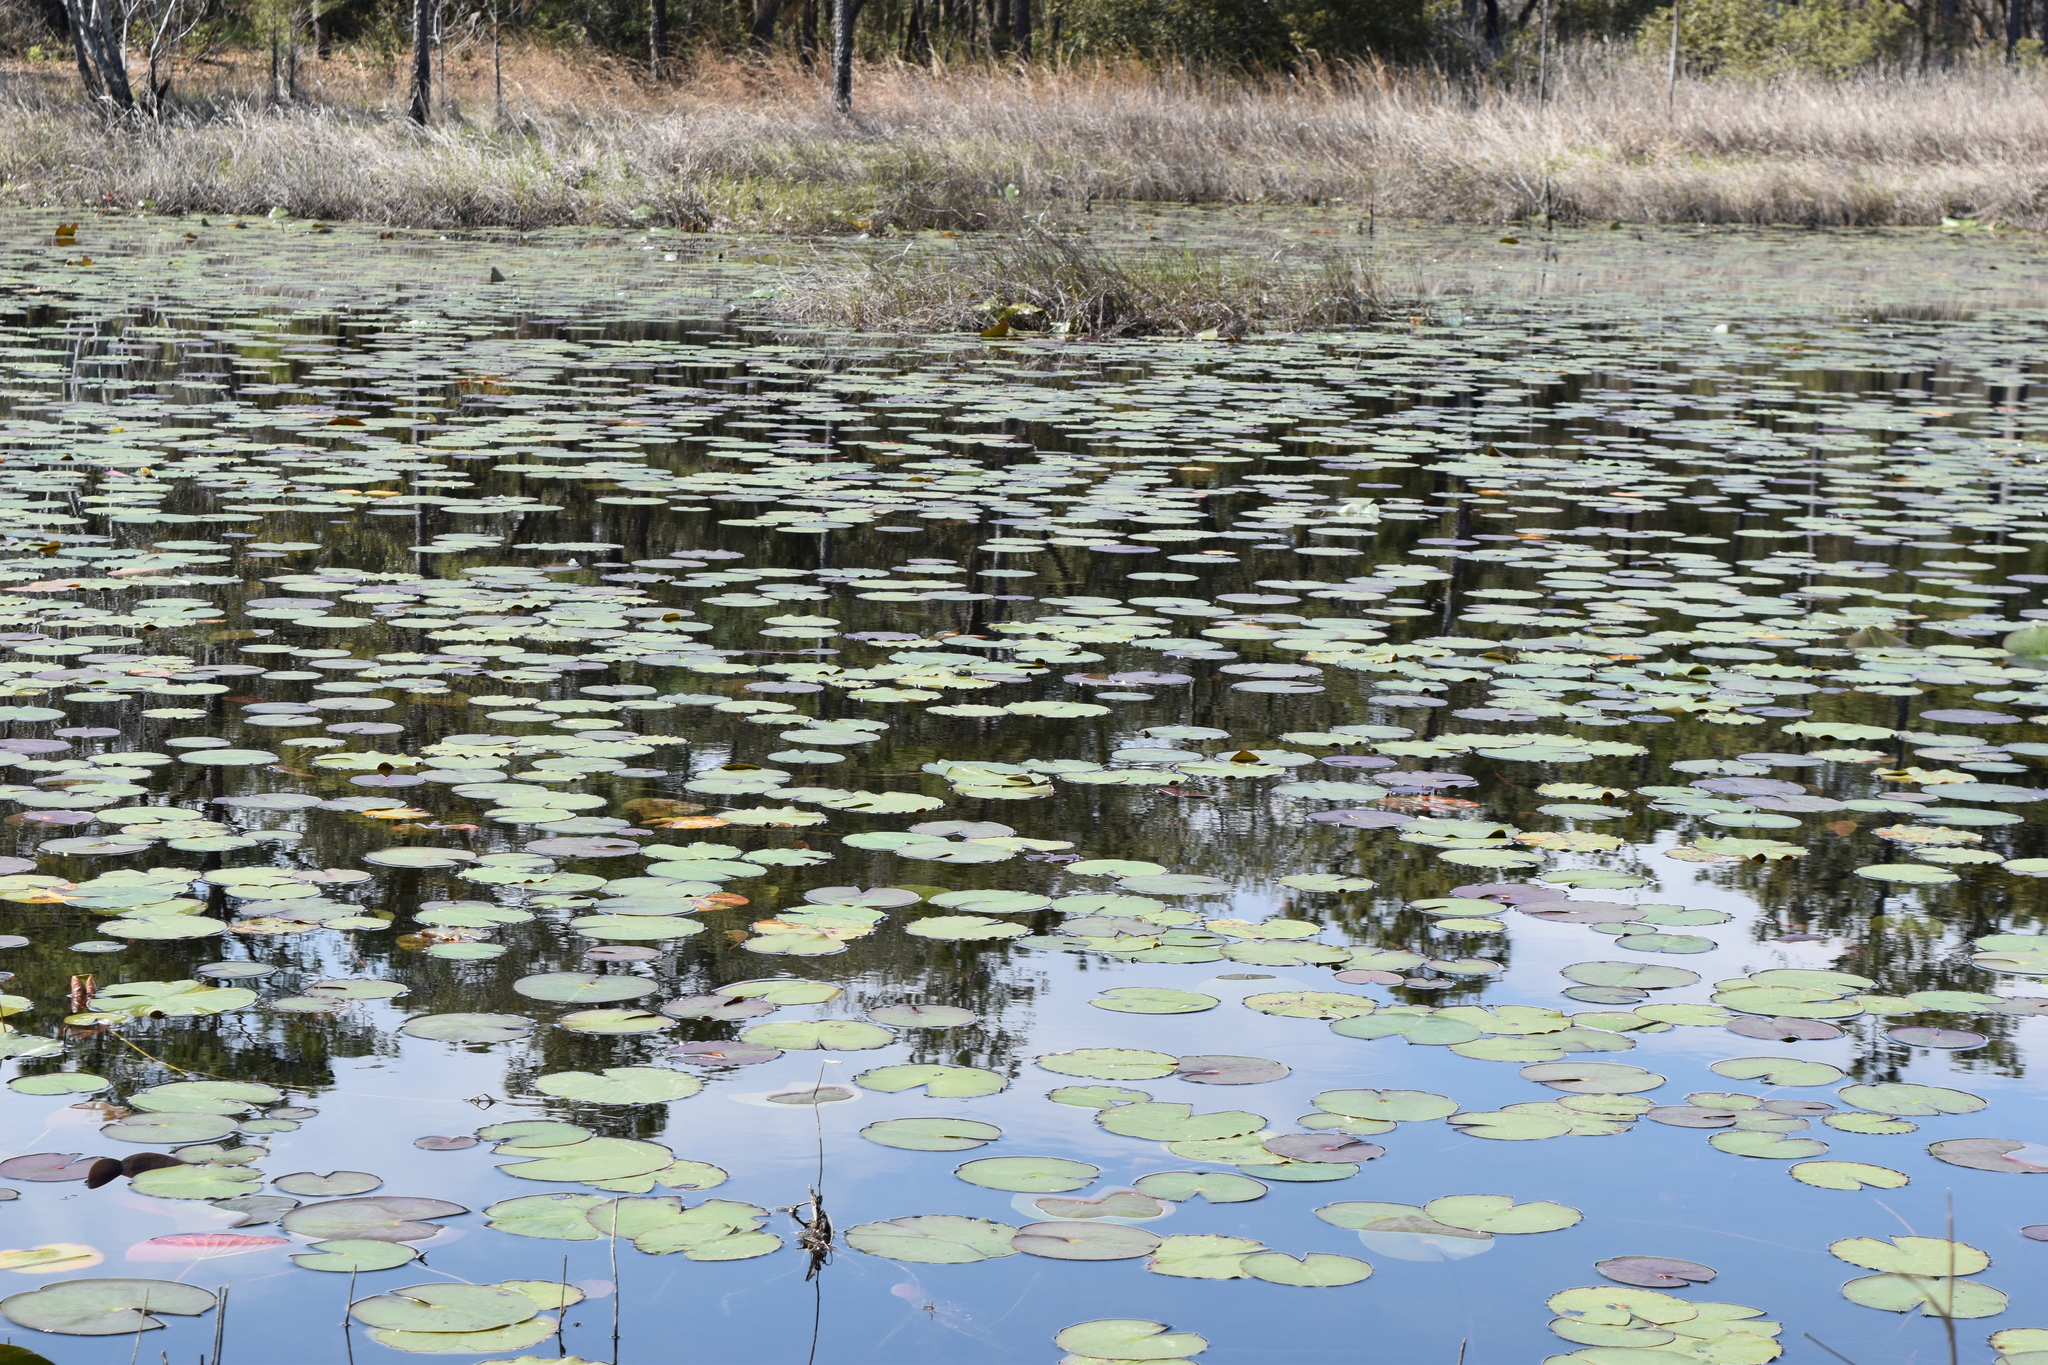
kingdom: Plantae
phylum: Tracheophyta
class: Magnoliopsida
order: Nymphaeales
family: Nymphaeaceae
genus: Nymphaea
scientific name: Nymphaea odorata
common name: Fragrant water-lily
